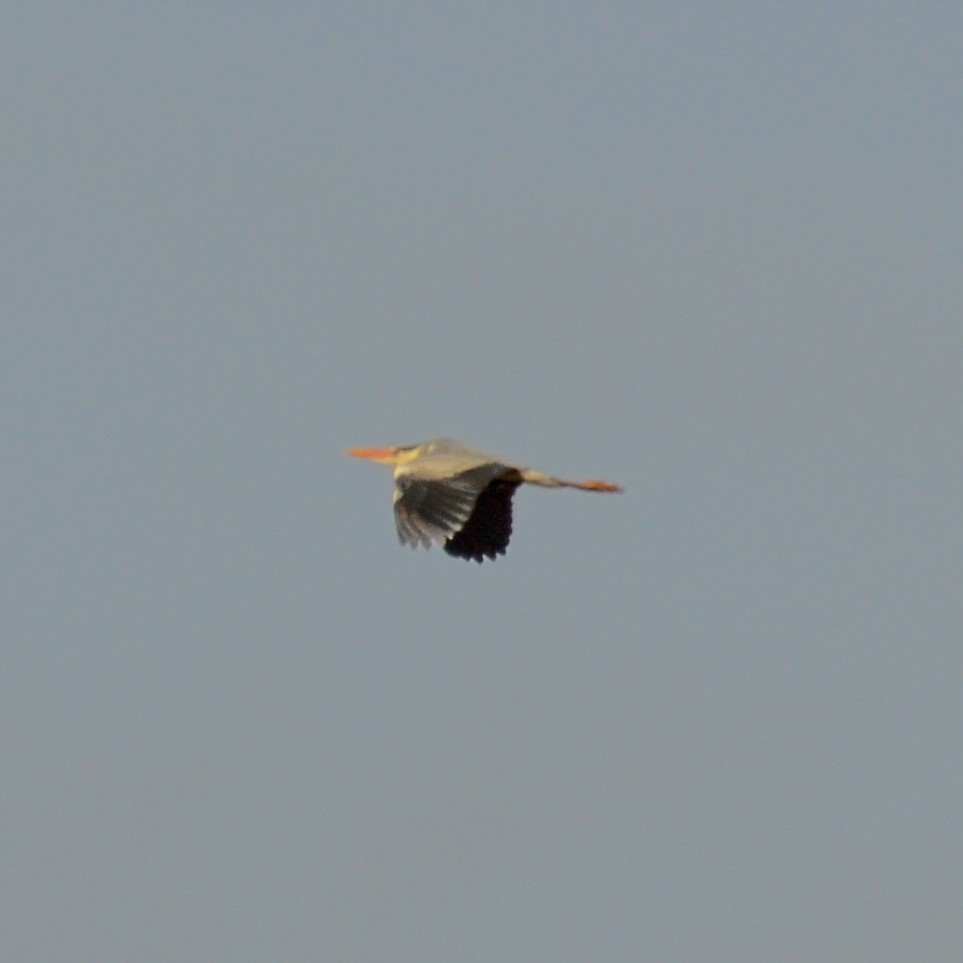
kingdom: Animalia
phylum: Chordata
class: Aves
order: Pelecaniformes
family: Ardeidae
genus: Ardea
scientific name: Ardea cinerea
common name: Grey heron
